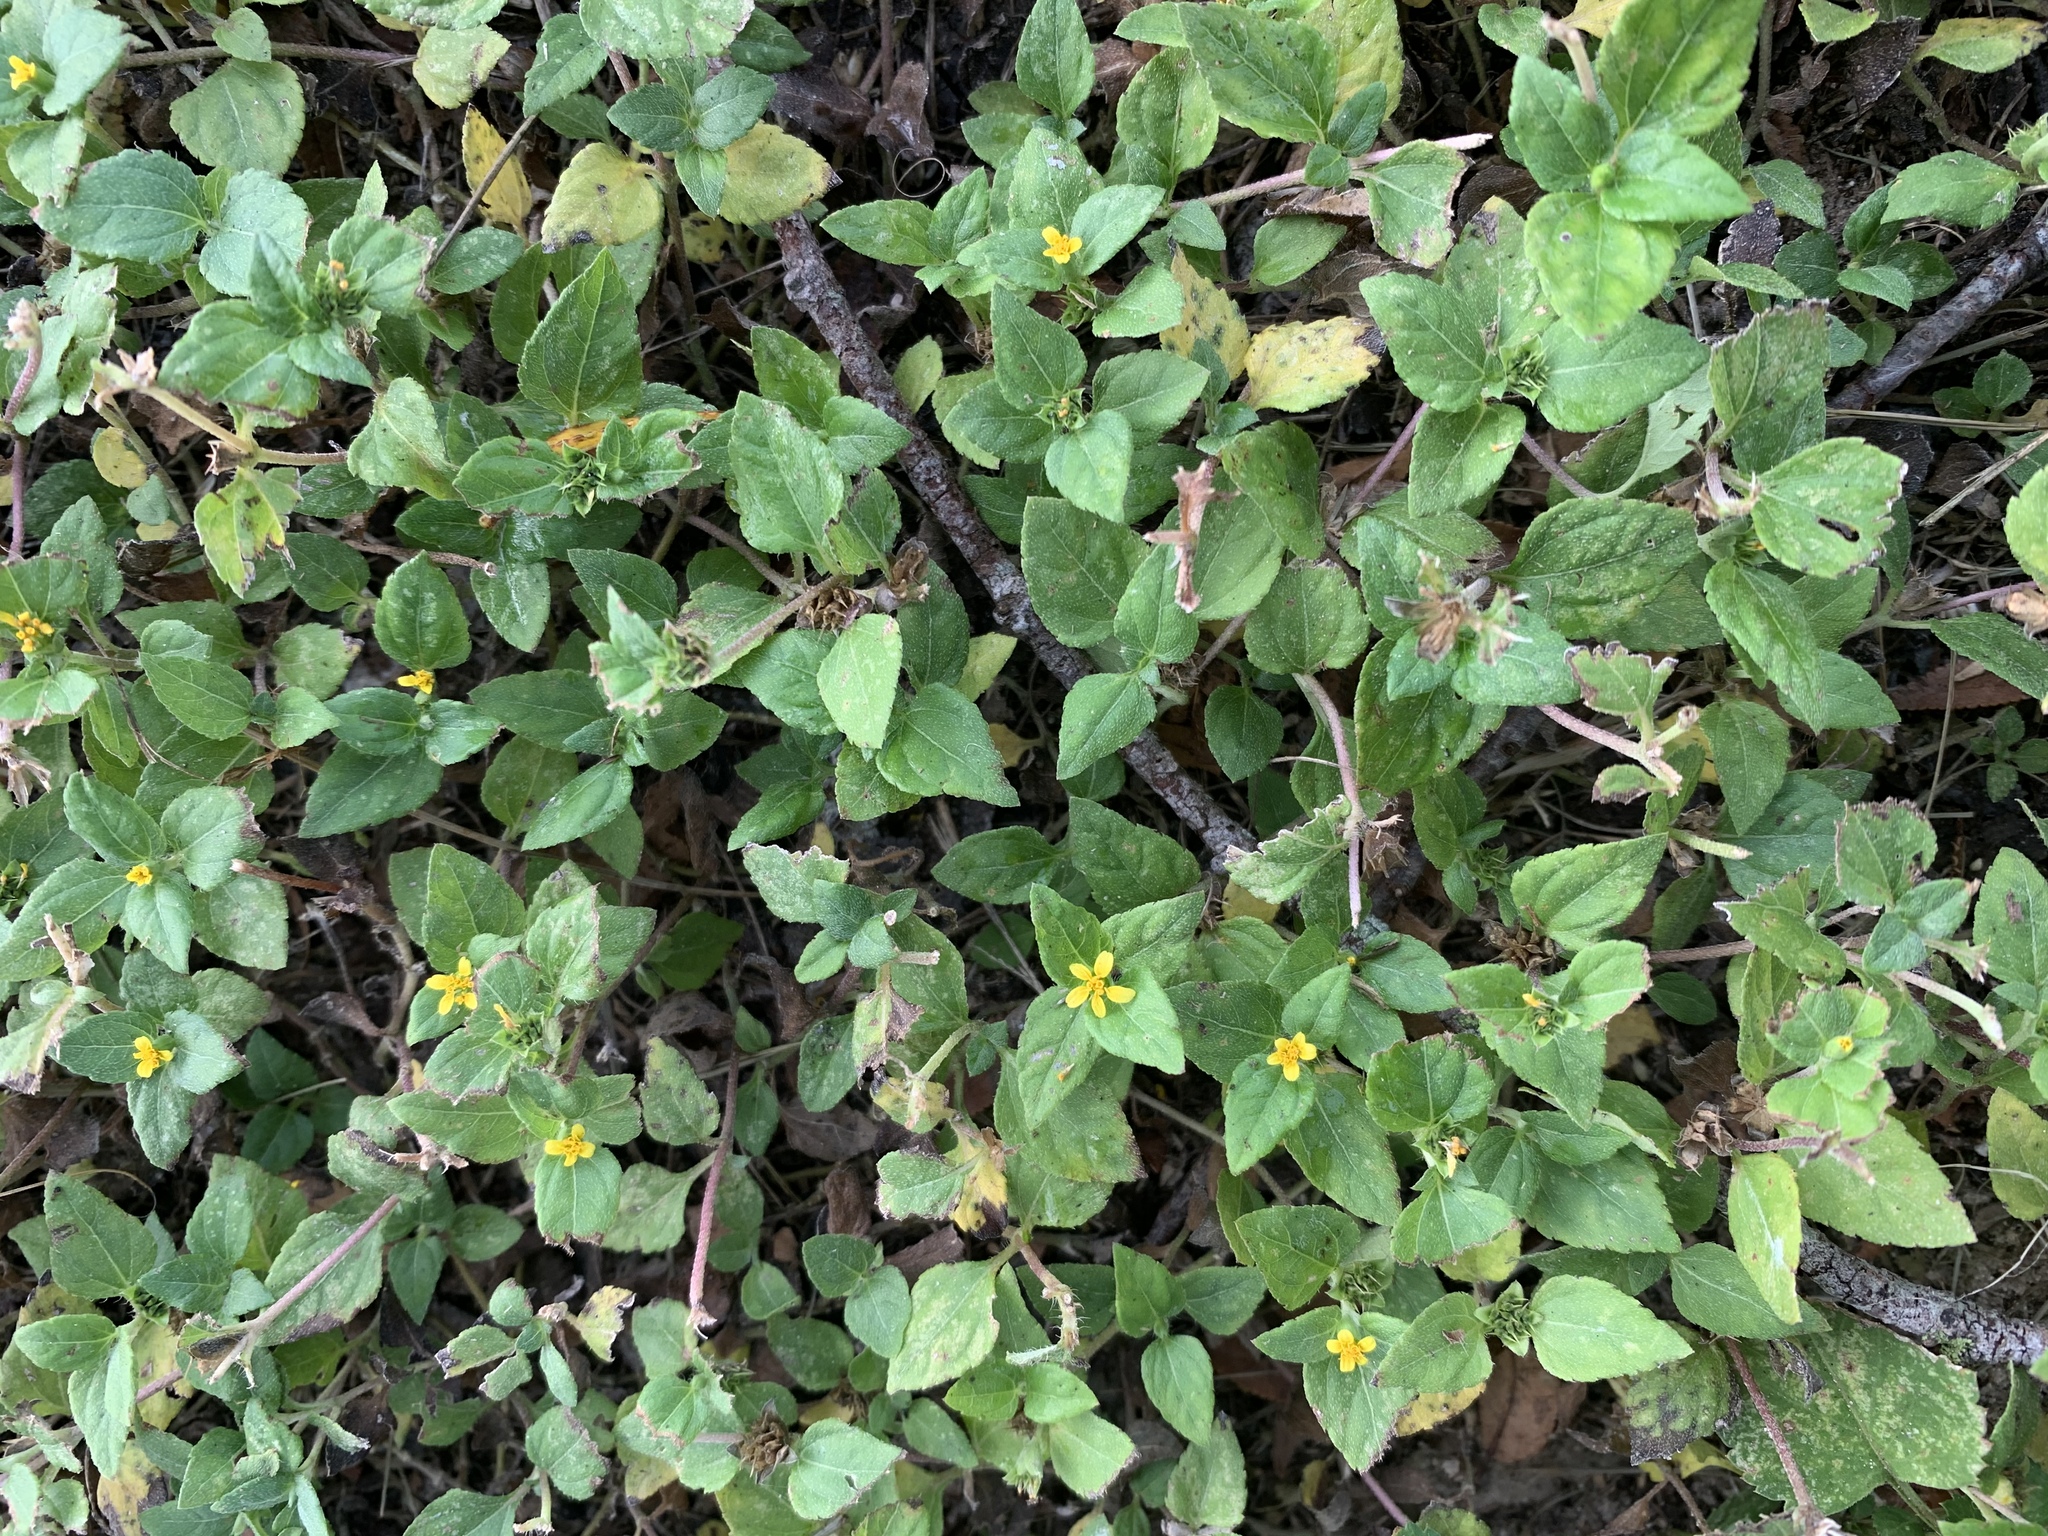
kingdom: Plantae
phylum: Tracheophyta
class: Magnoliopsida
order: Asterales
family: Asteraceae
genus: Calyptocarpus
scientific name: Calyptocarpus vialis
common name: Straggler daisy
